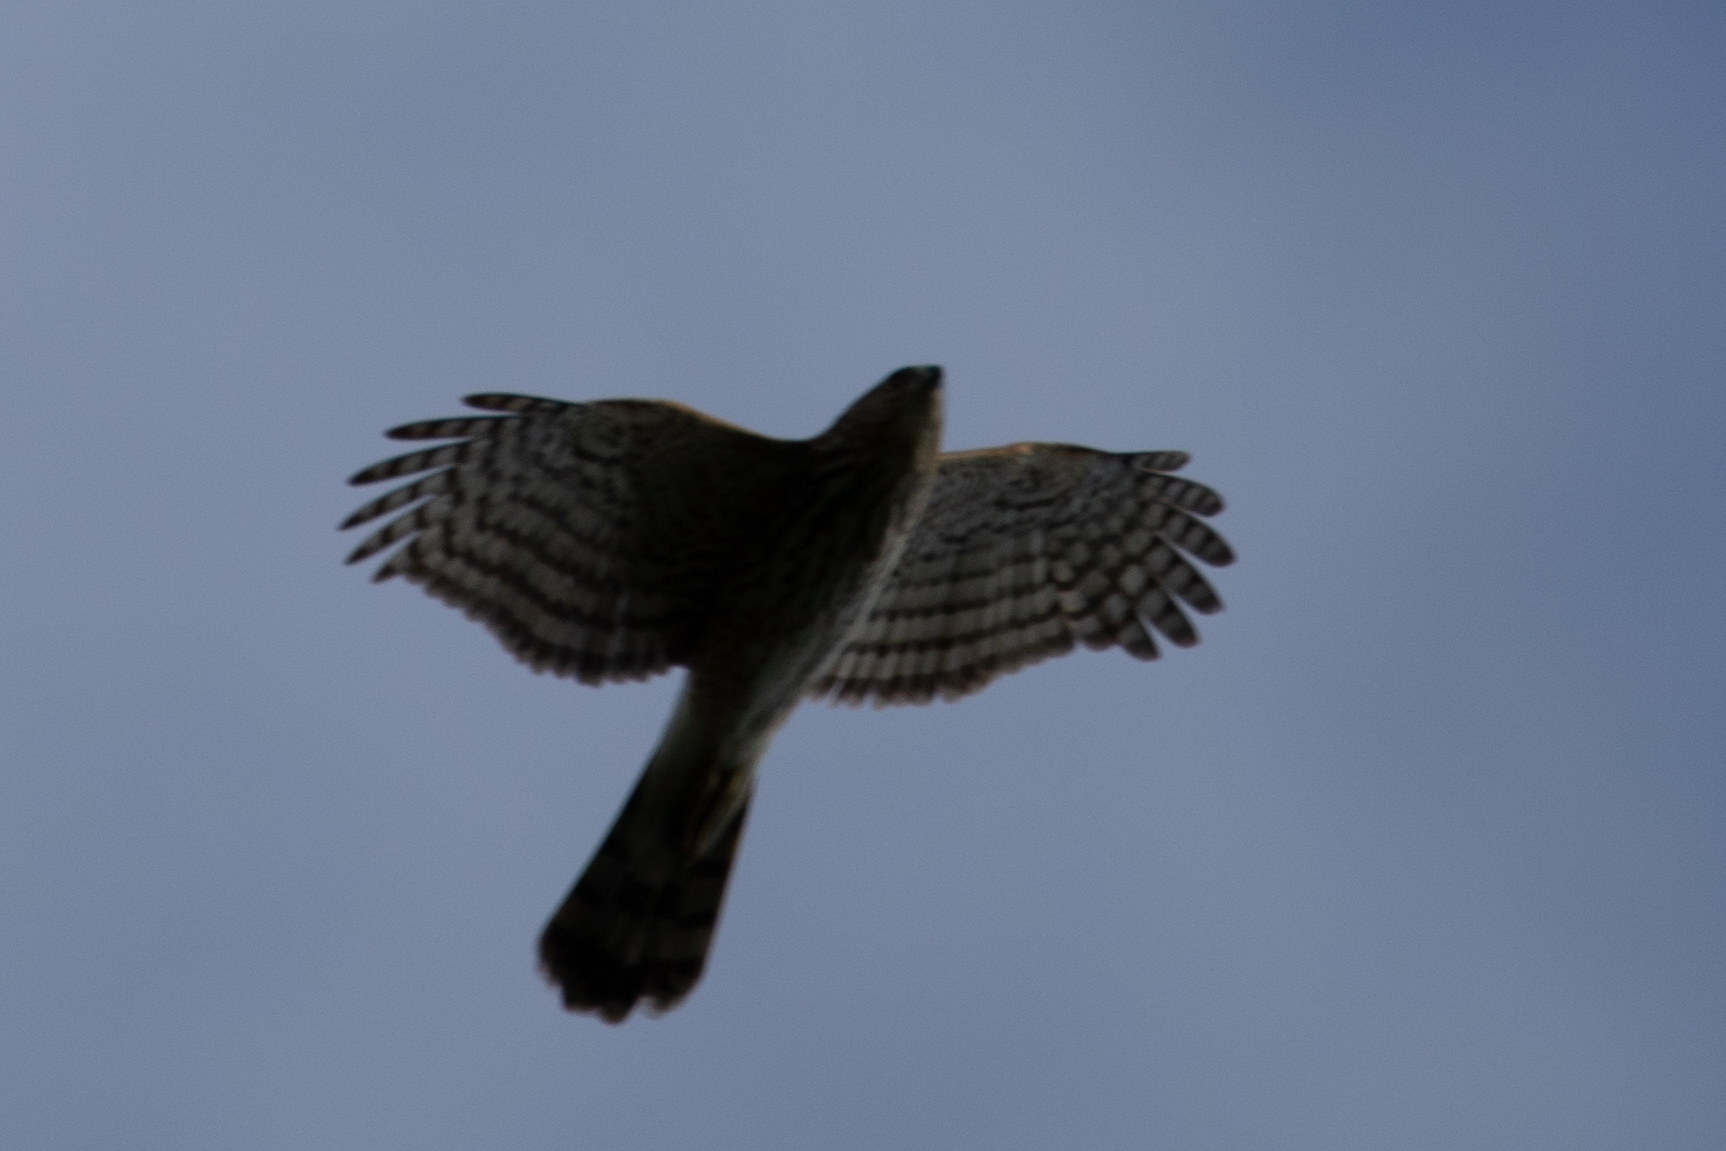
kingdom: Animalia
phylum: Chordata
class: Aves
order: Accipitriformes
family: Accipitridae
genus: Accipiter
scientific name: Accipiter cooperii
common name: Cooper's hawk
